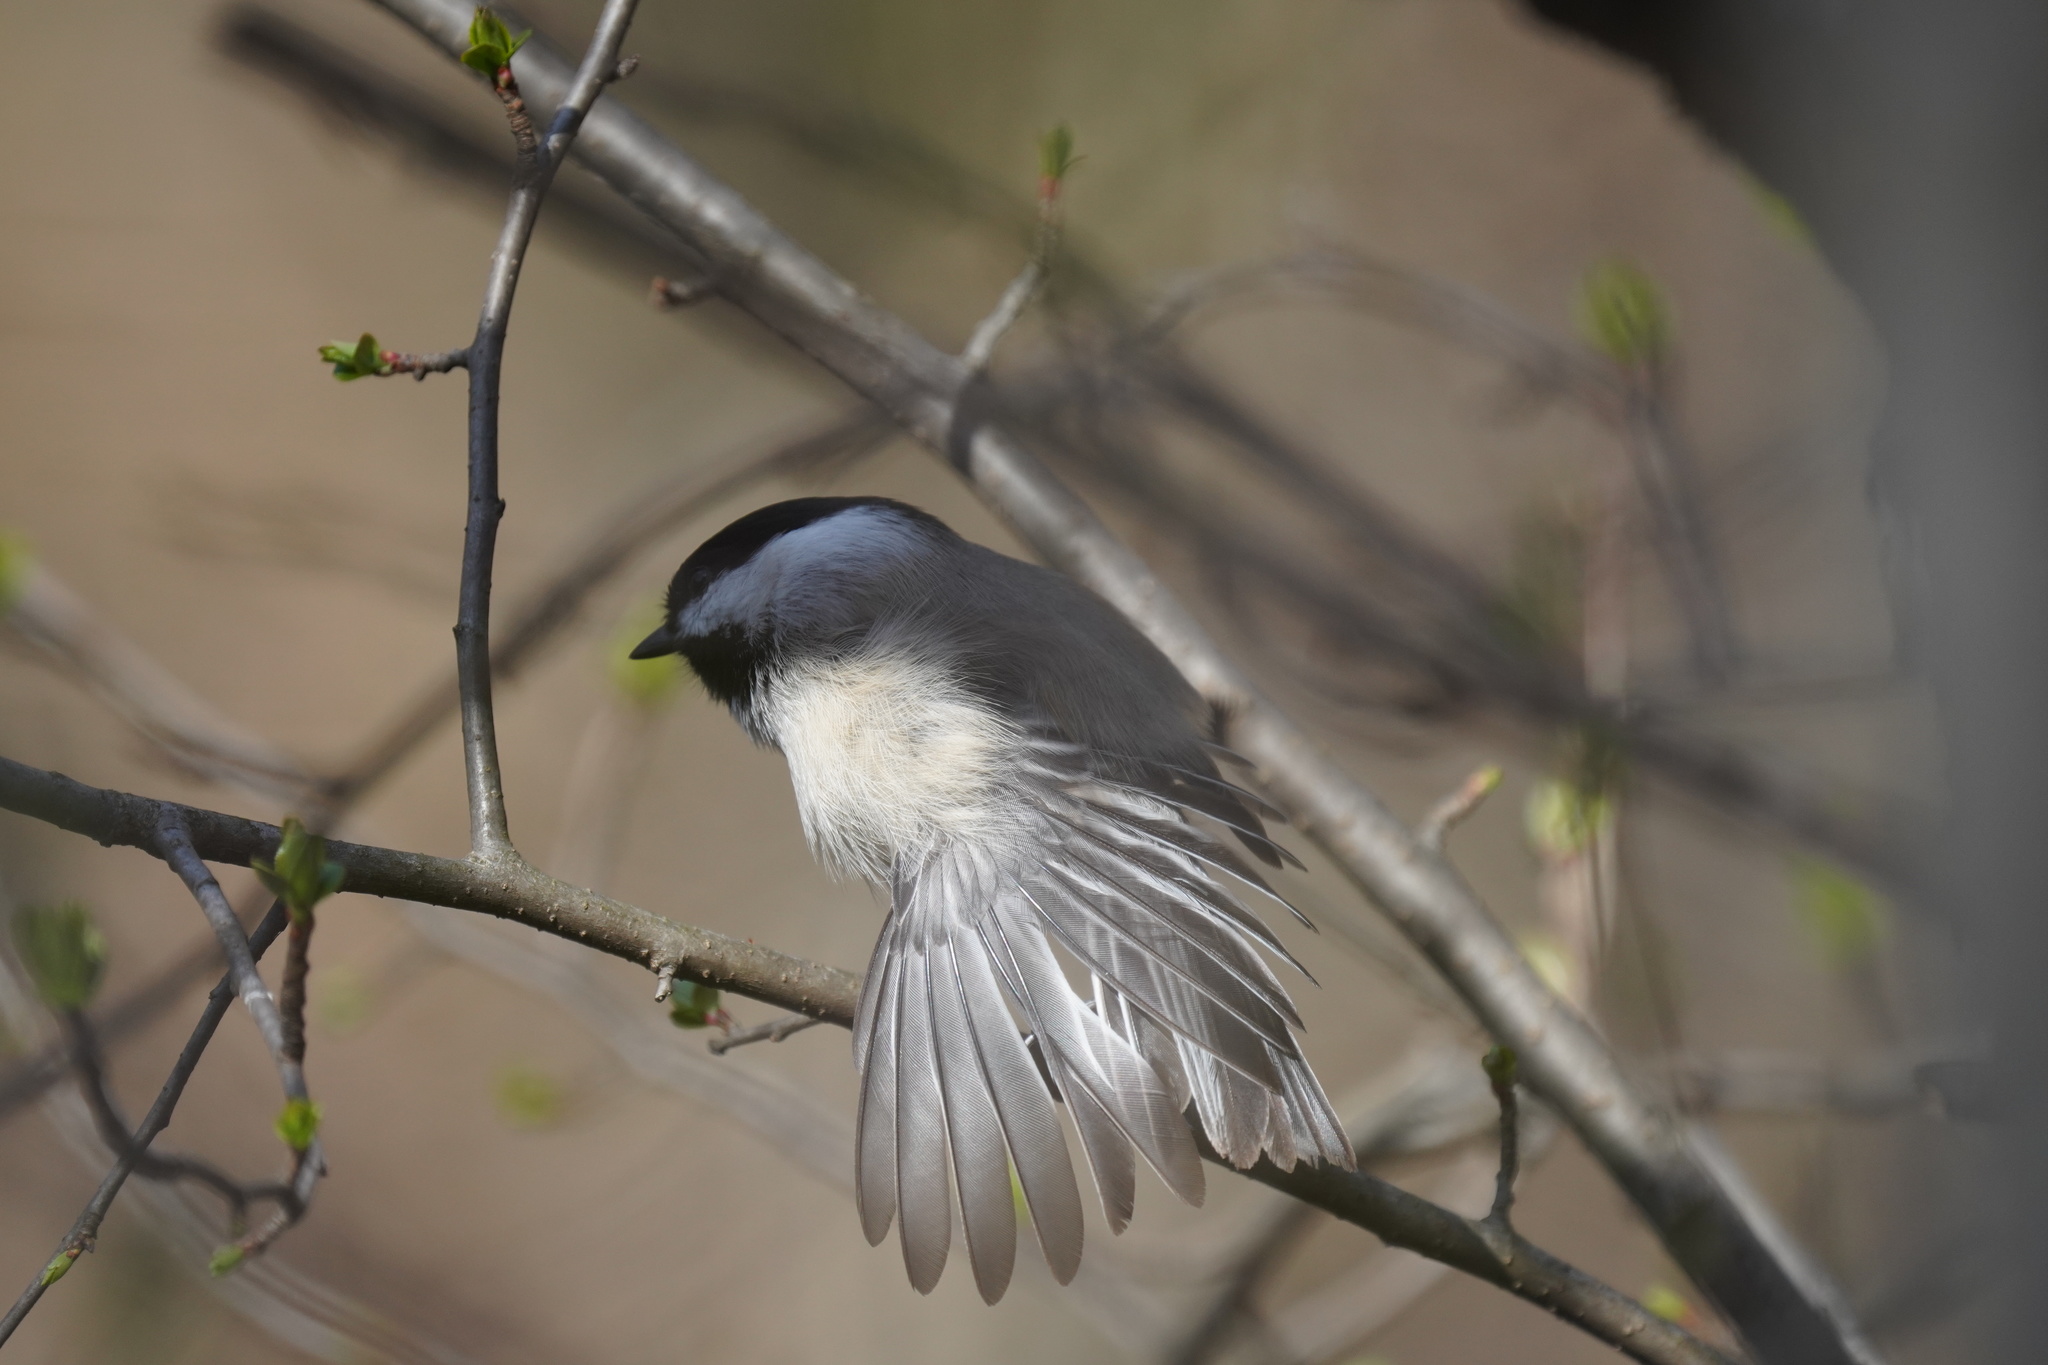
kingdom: Animalia
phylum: Chordata
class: Aves
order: Passeriformes
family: Paridae
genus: Poecile
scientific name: Poecile atricapillus
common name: Black-capped chickadee
